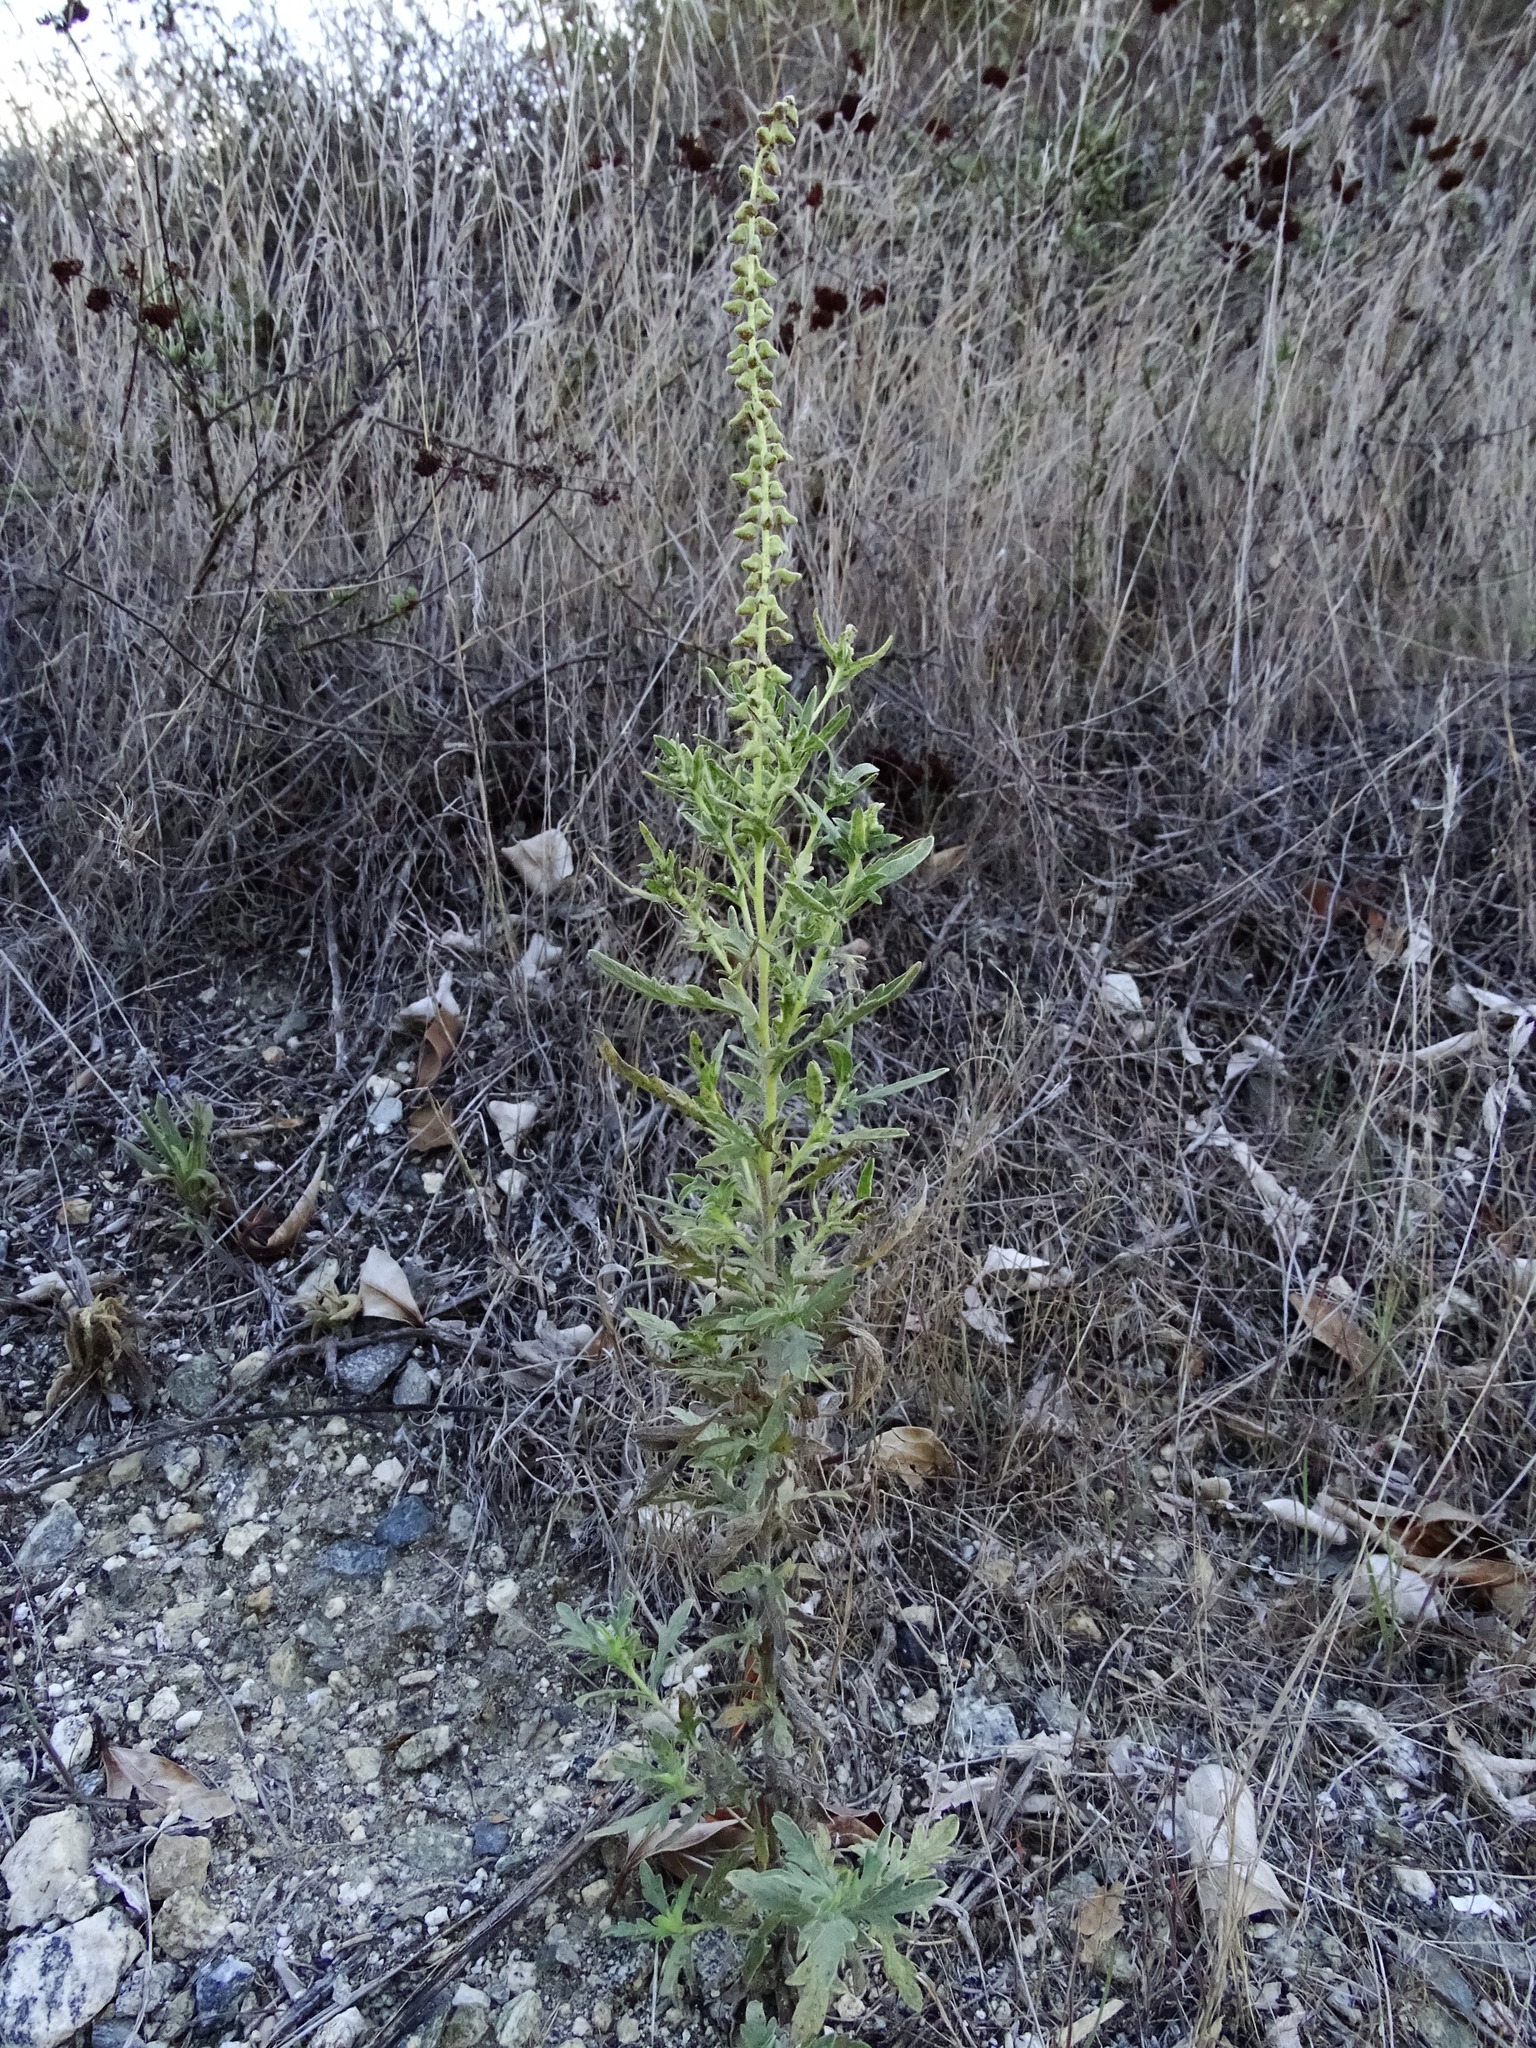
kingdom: Plantae
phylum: Tracheophyta
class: Magnoliopsida
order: Asterales
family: Asteraceae
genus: Ambrosia
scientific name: Ambrosia psilostachya
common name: Perennial ragweed
